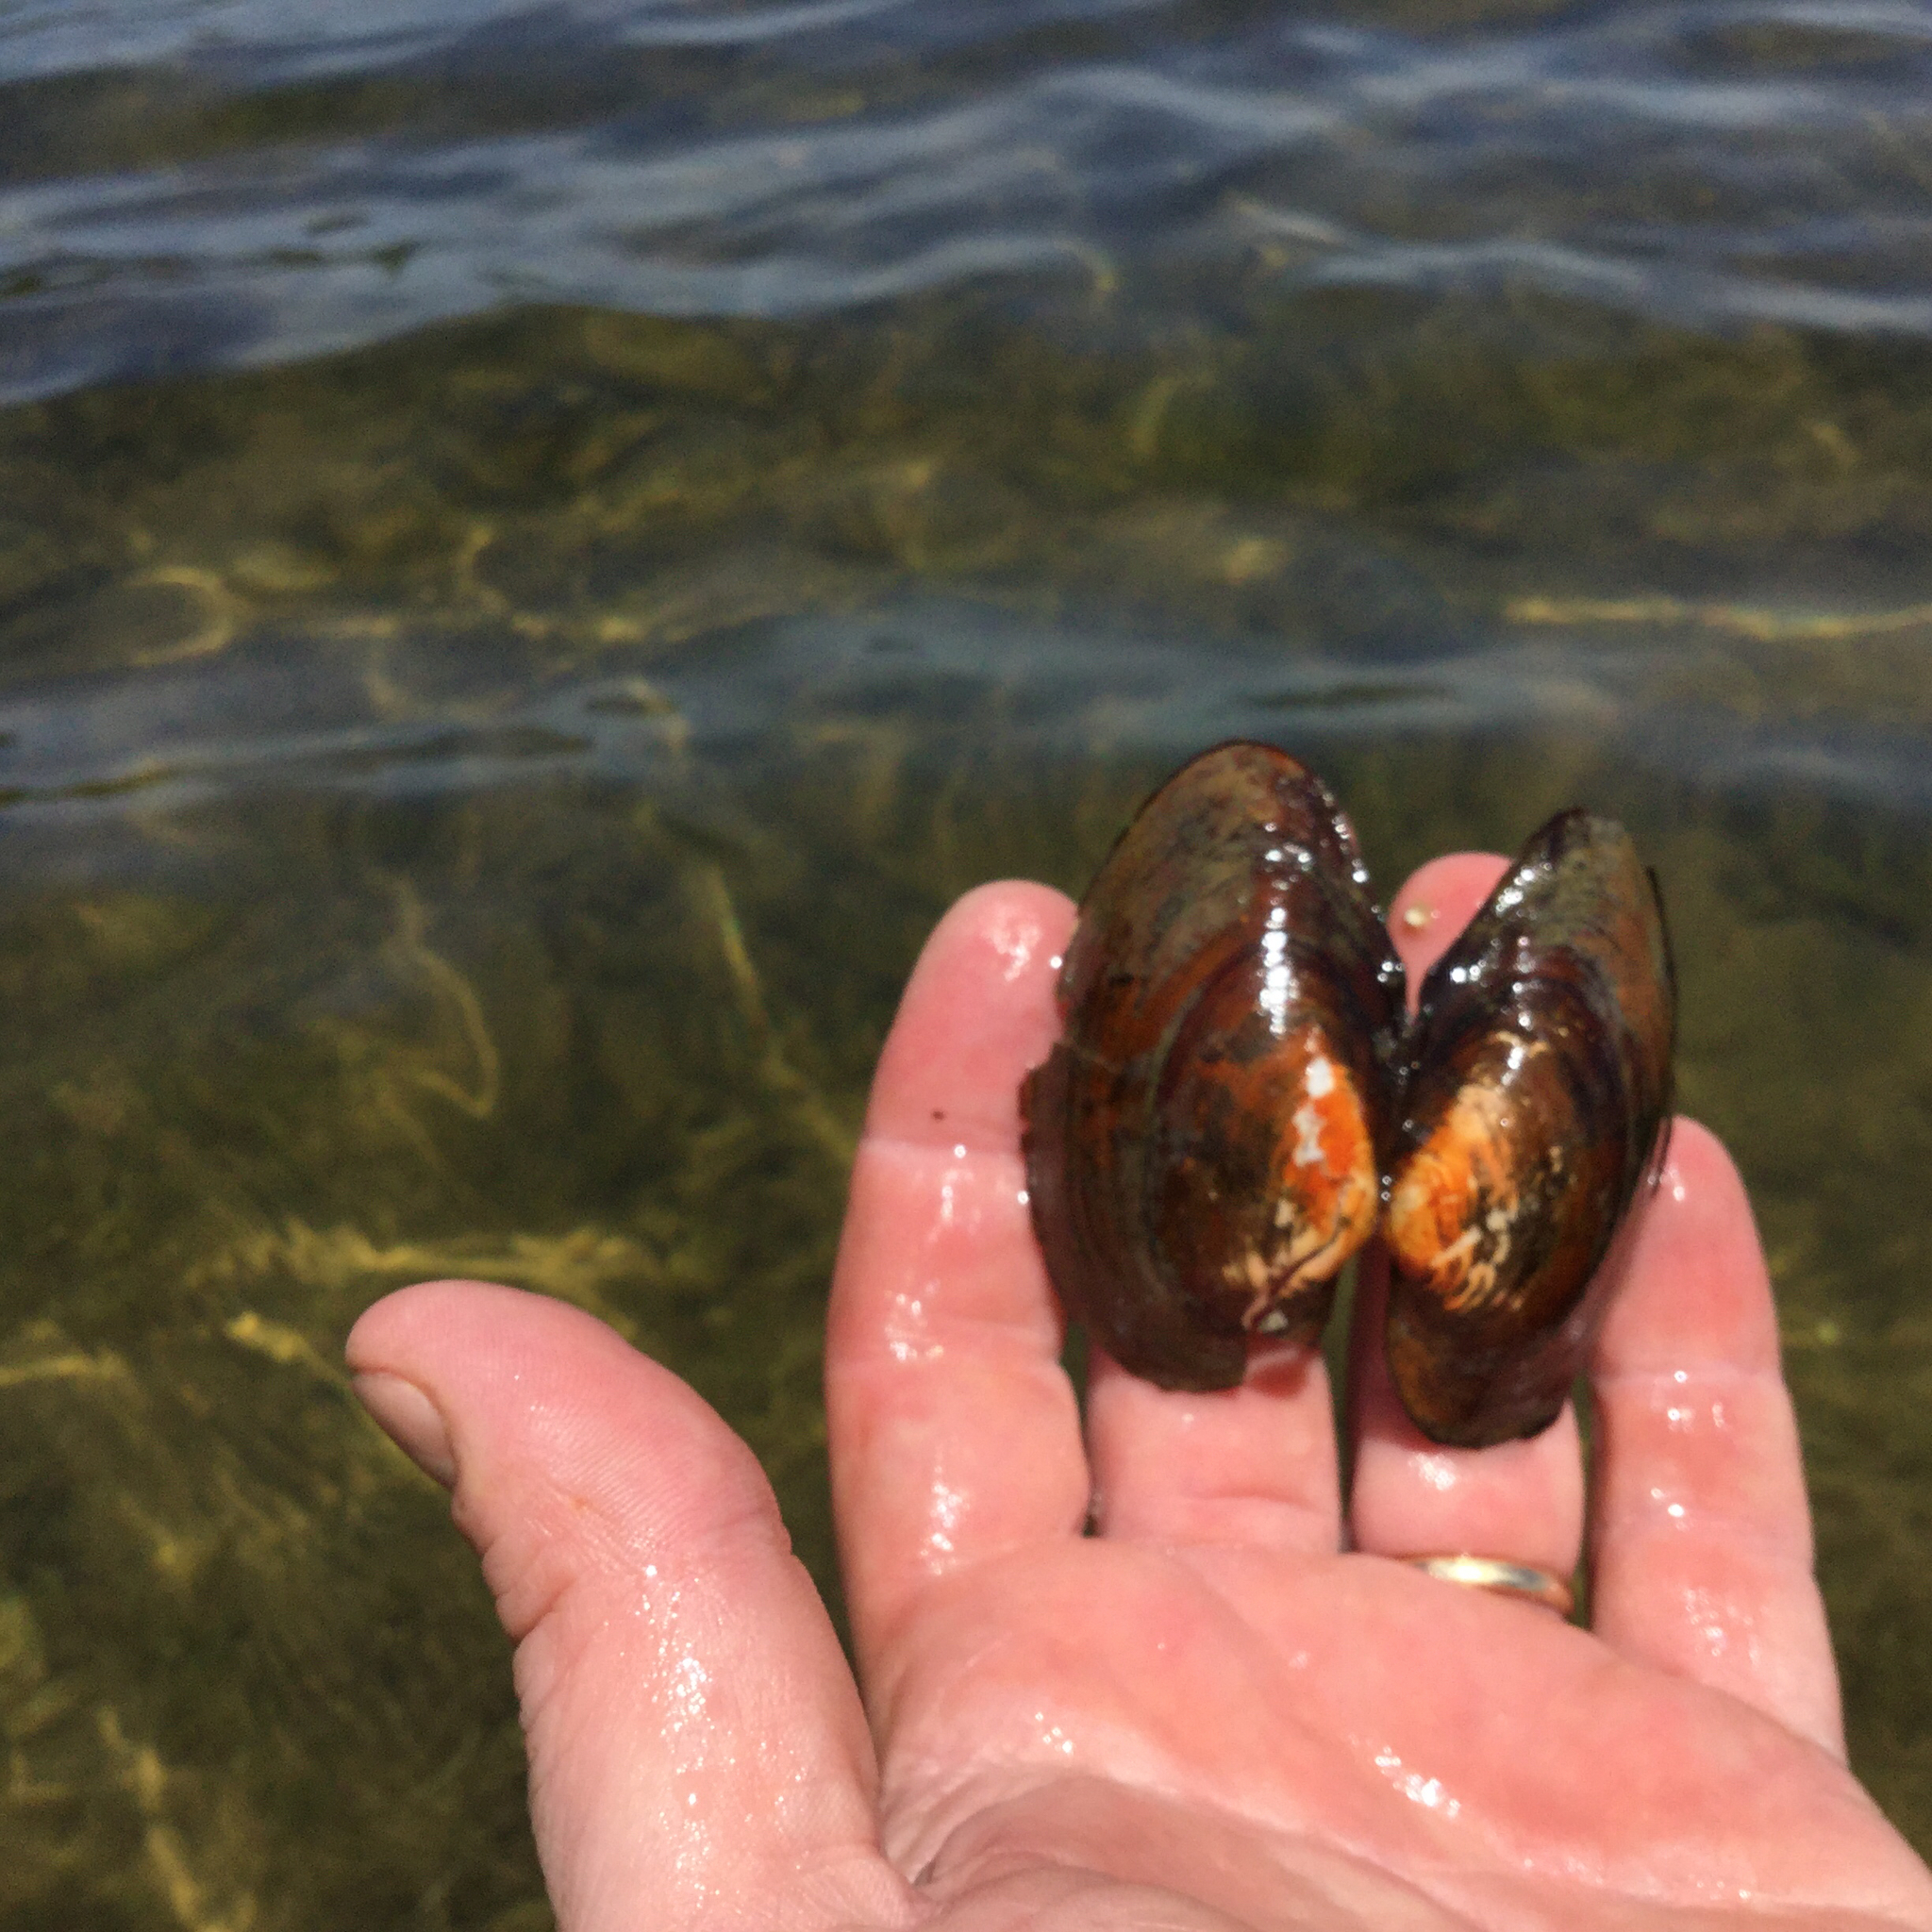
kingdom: Animalia
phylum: Mollusca
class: Bivalvia
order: Unionida
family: Unionidae
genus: Pyganodon
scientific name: Pyganodon grandis
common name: Giant floater
